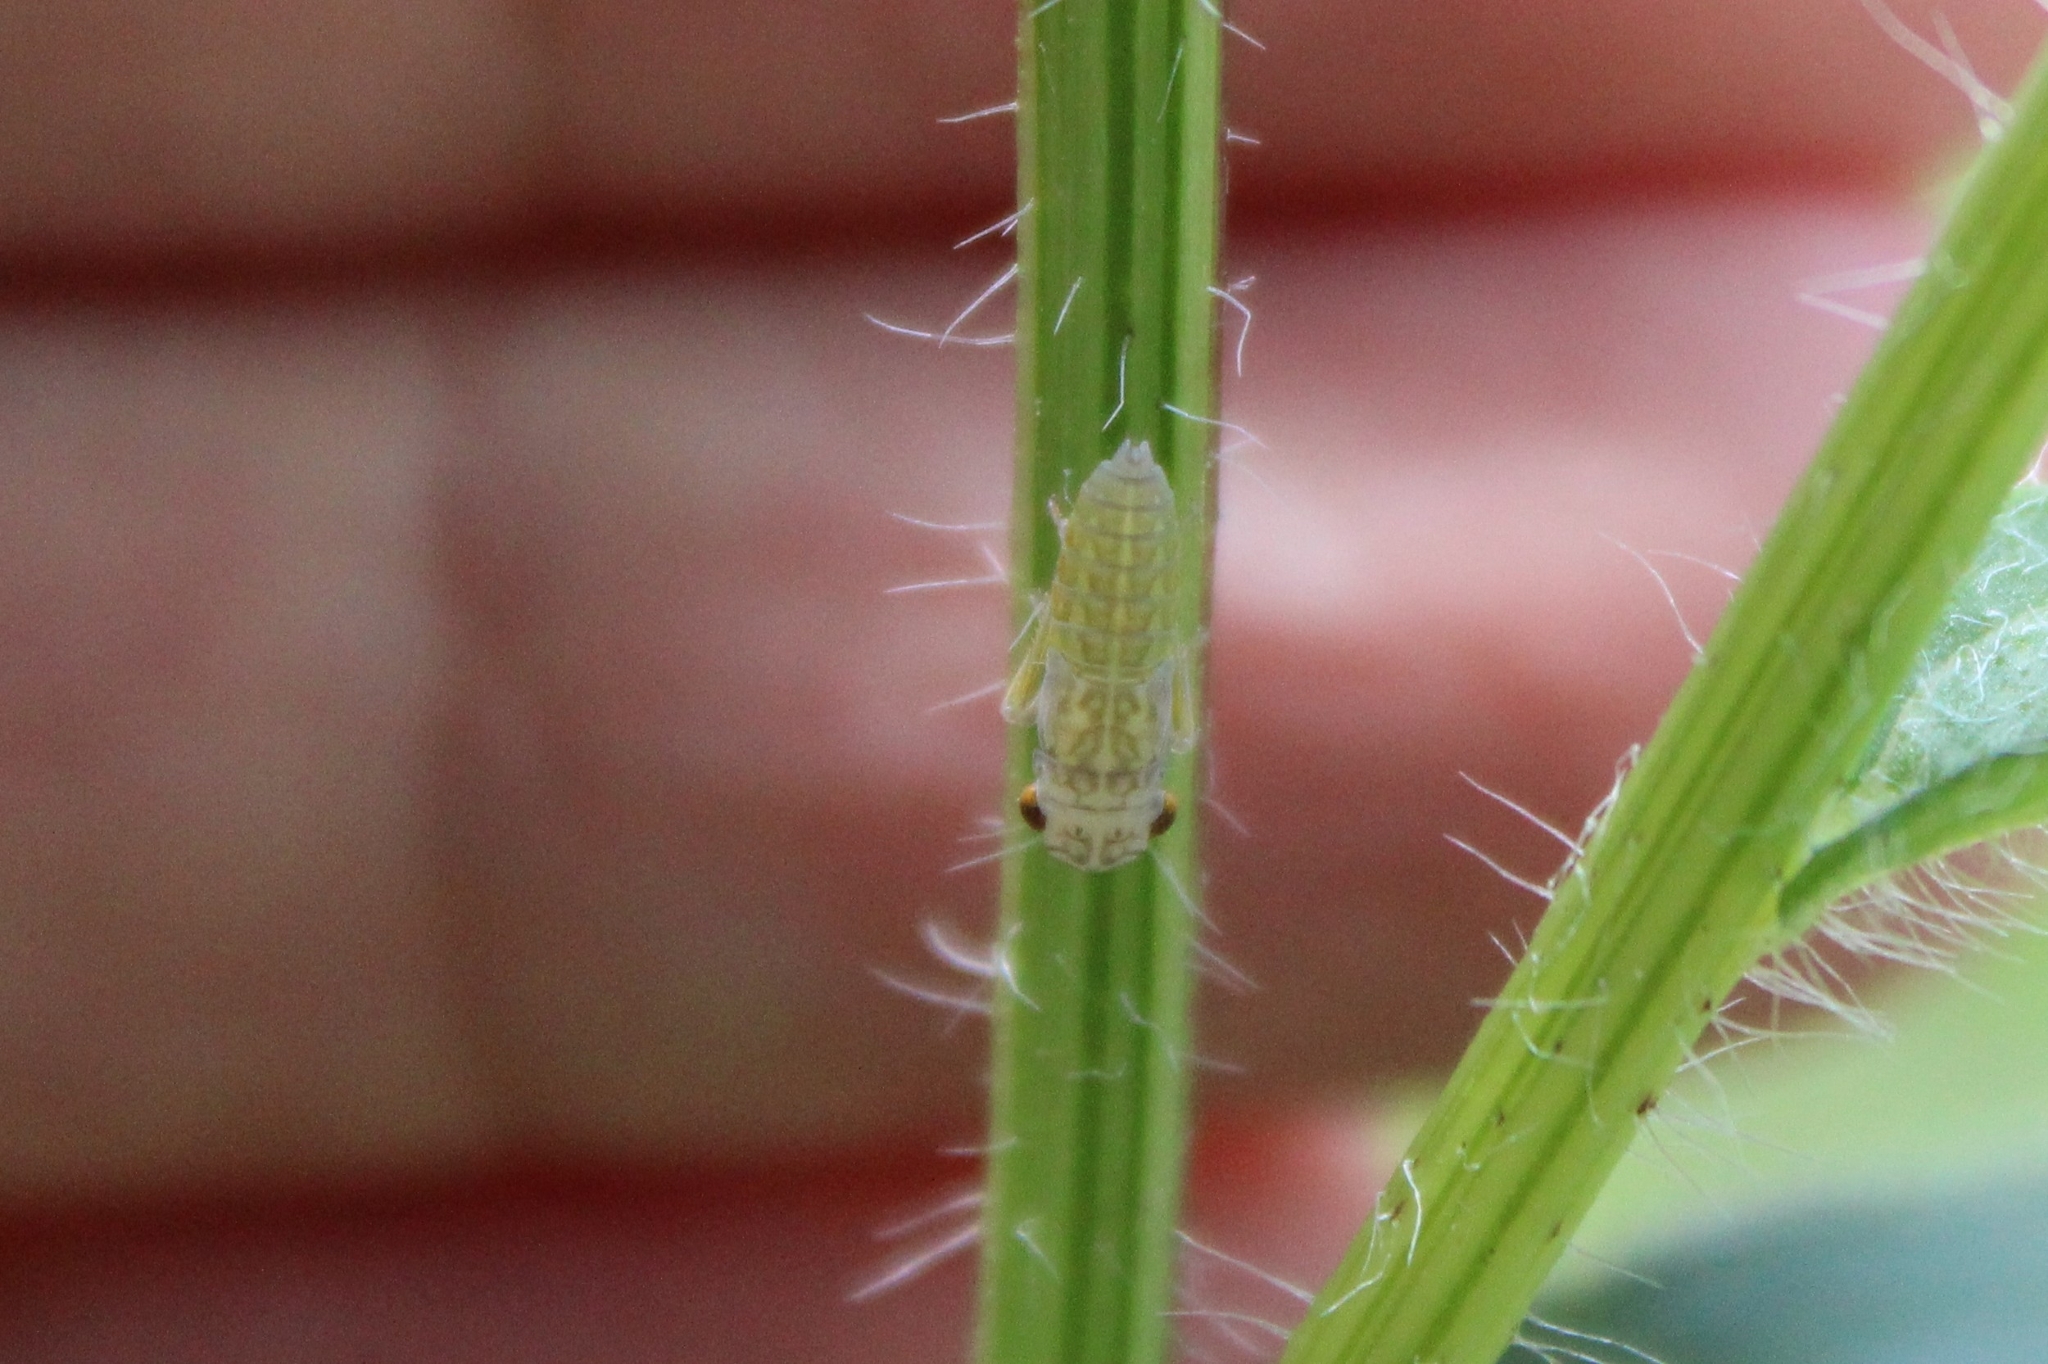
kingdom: Animalia
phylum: Arthropoda
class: Insecta
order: Hemiptera
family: Cicadellidae
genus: Oncometopia
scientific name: Oncometopia orbona
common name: Broad-headed sharpshooter
